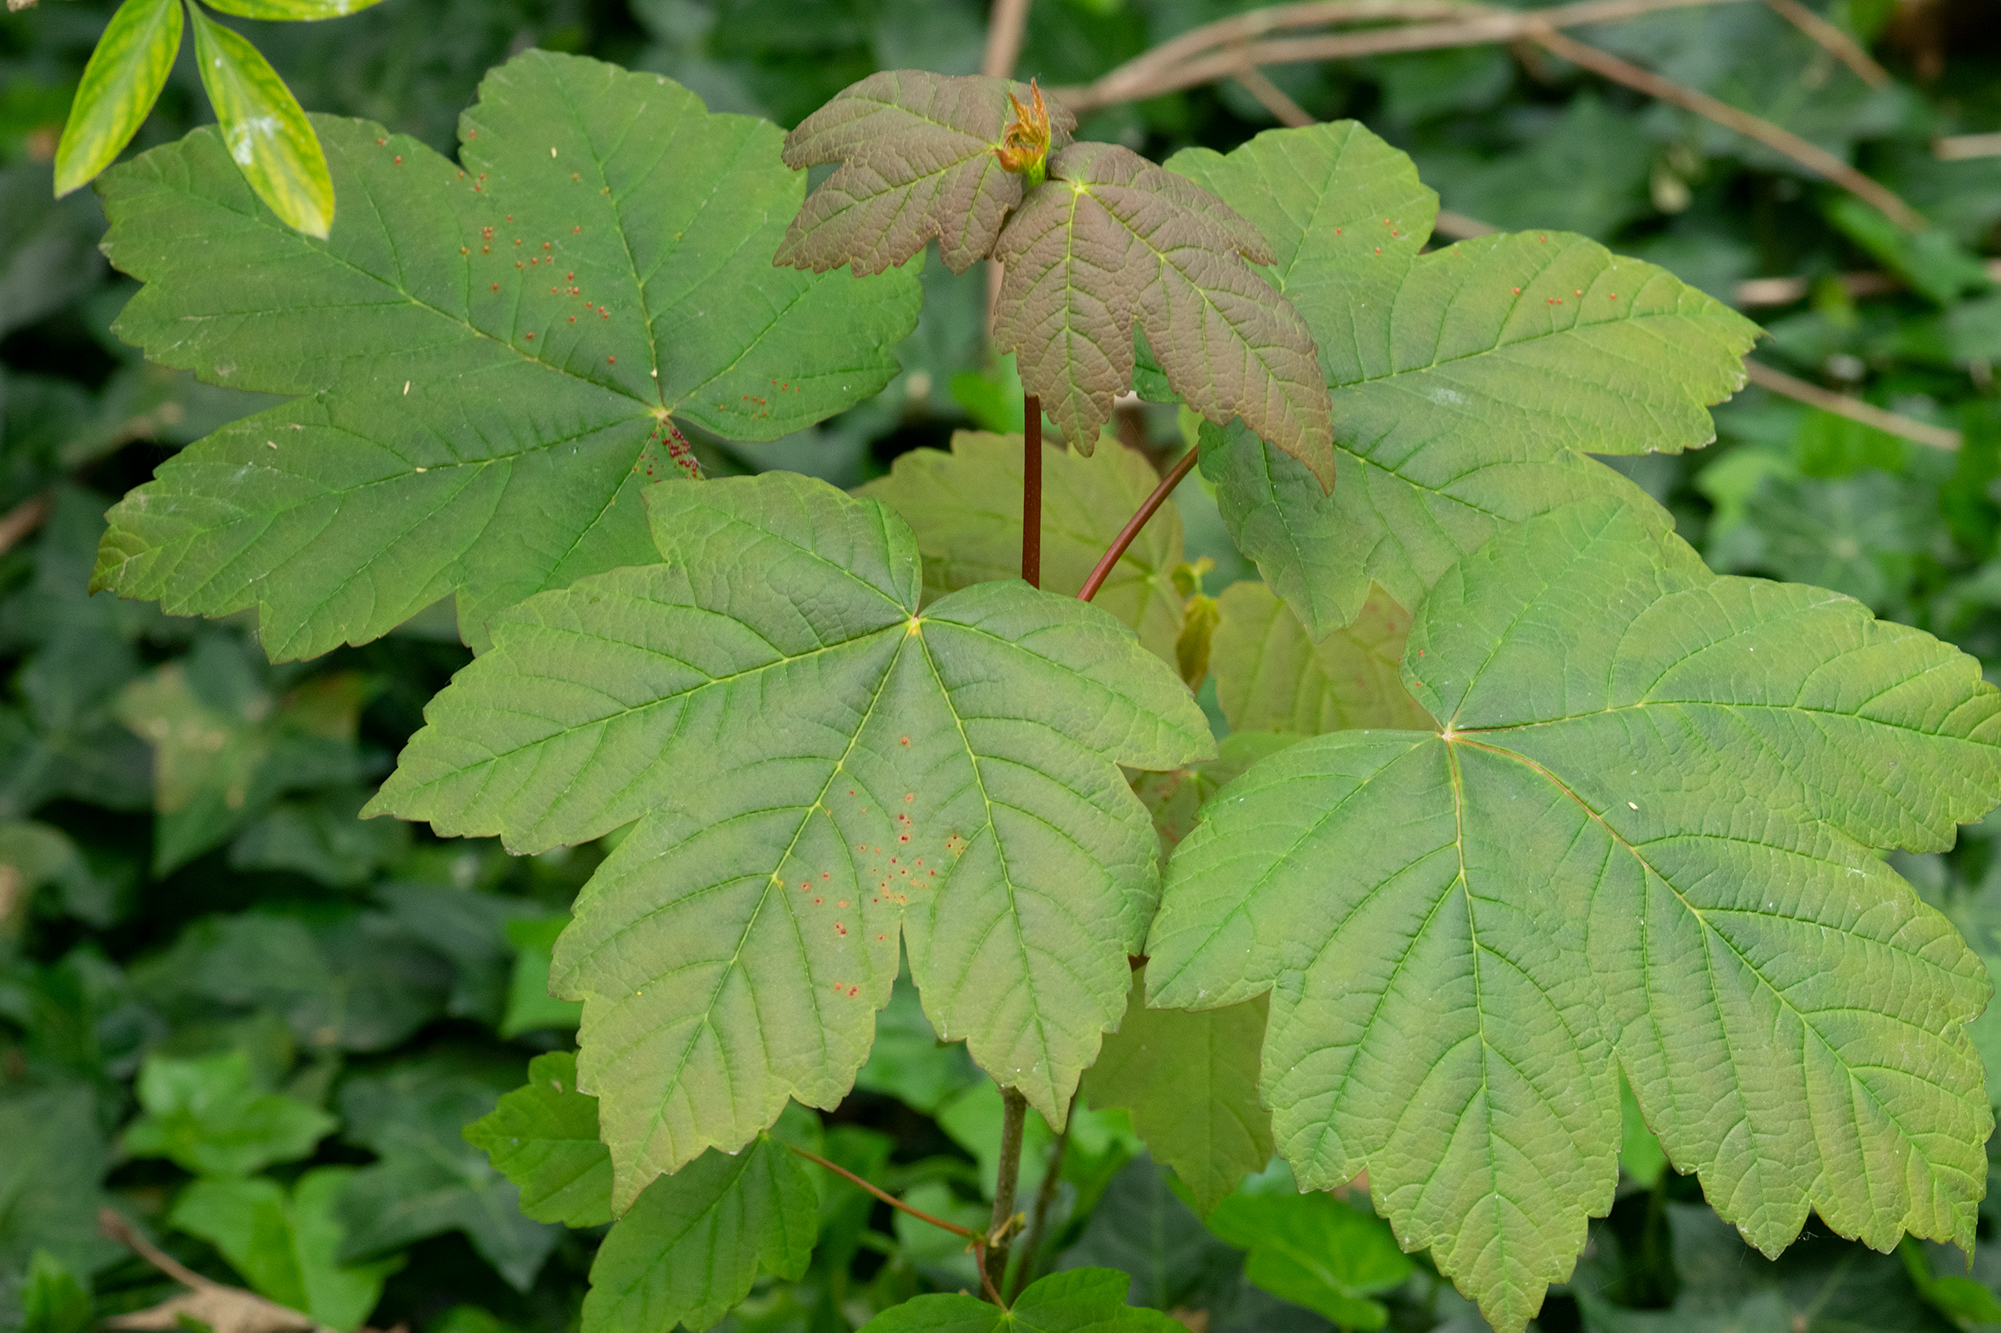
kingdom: Plantae
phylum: Tracheophyta
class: Magnoliopsida
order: Sapindales
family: Sapindaceae
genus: Acer
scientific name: Acer pseudoplatanus
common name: Sycamore
